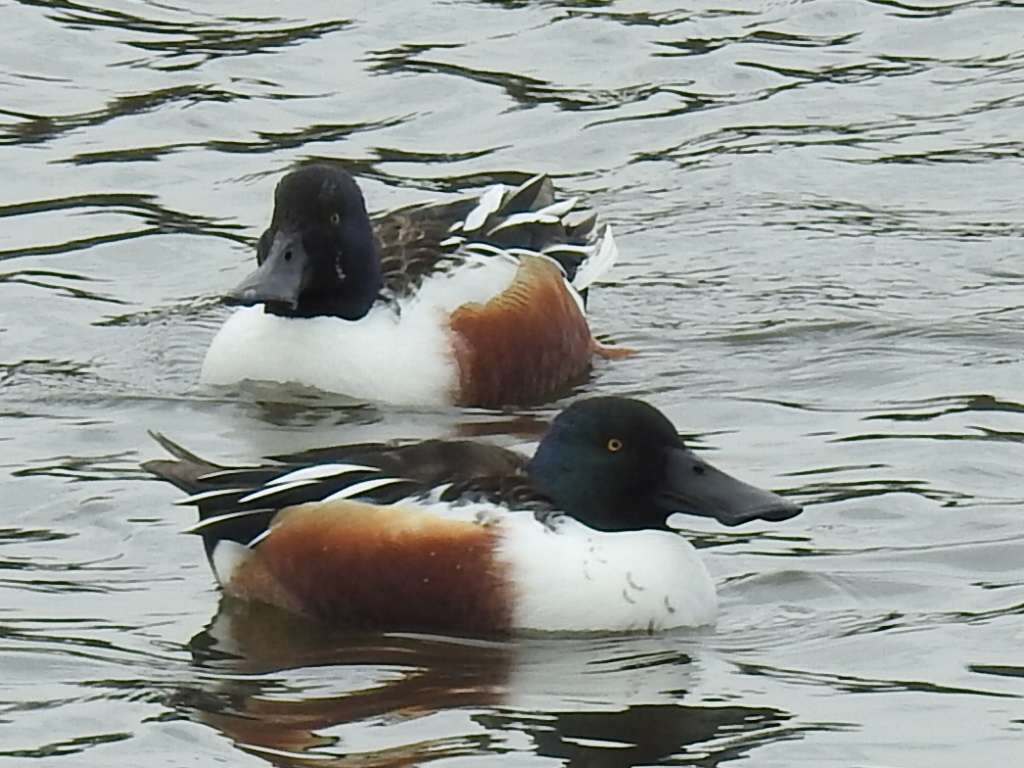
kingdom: Animalia
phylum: Chordata
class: Aves
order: Anseriformes
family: Anatidae
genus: Spatula
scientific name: Spatula clypeata
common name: Northern shoveler
